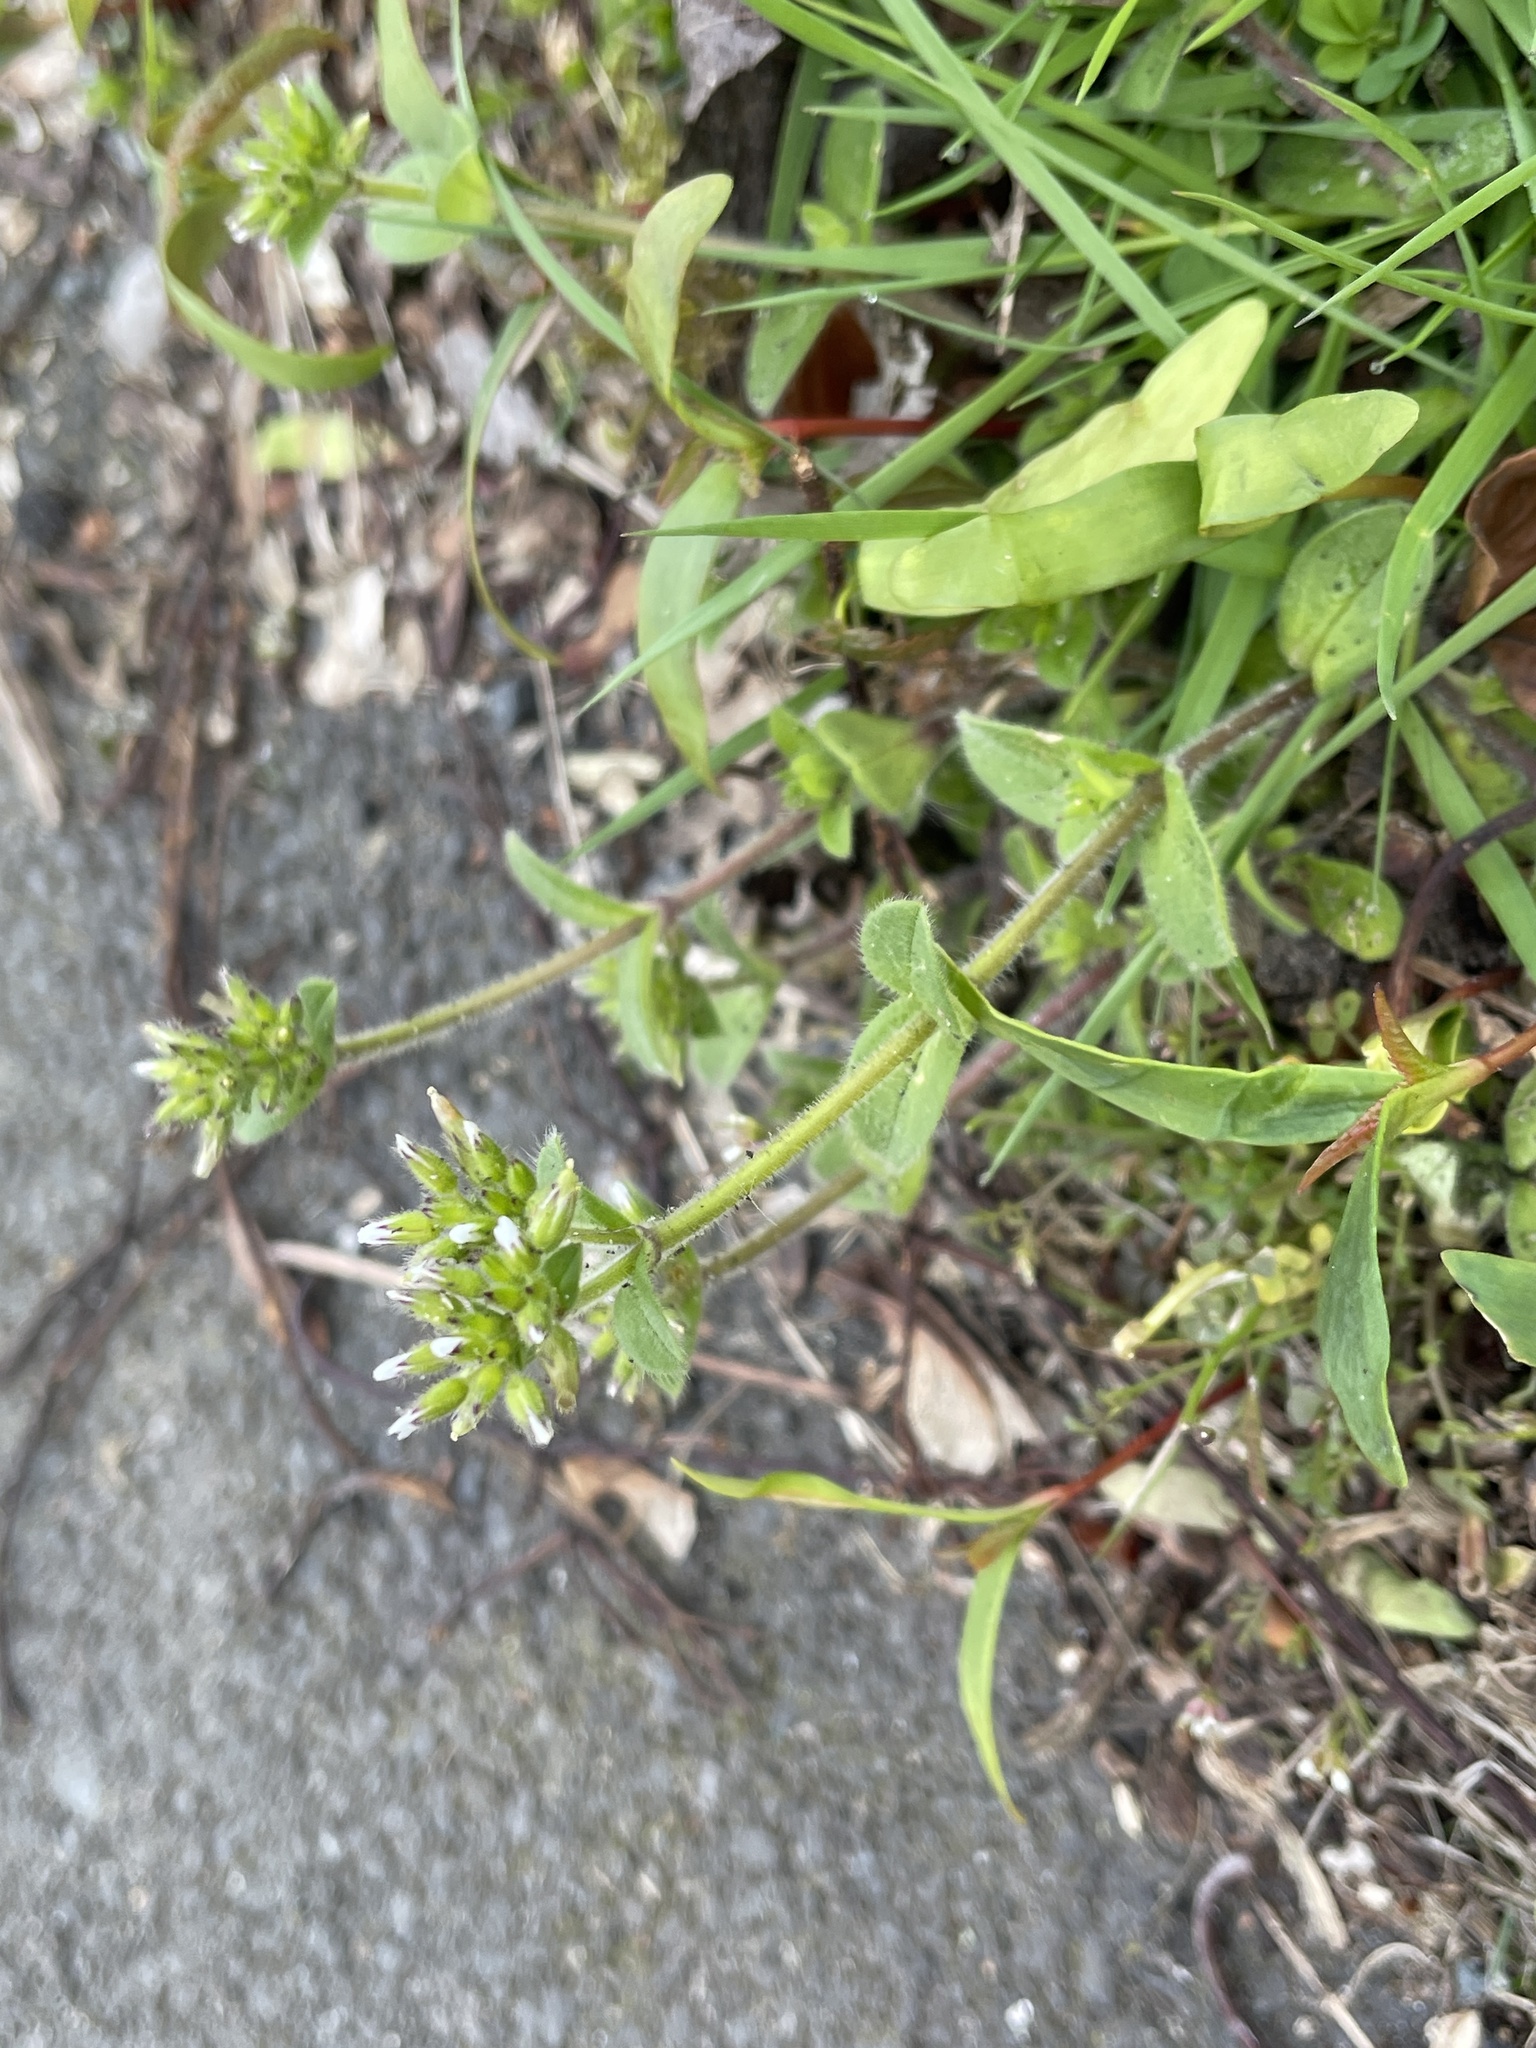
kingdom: Plantae
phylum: Tracheophyta
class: Magnoliopsida
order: Caryophyllales
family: Caryophyllaceae
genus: Cerastium
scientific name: Cerastium glomeratum
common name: Sticky chickweed
